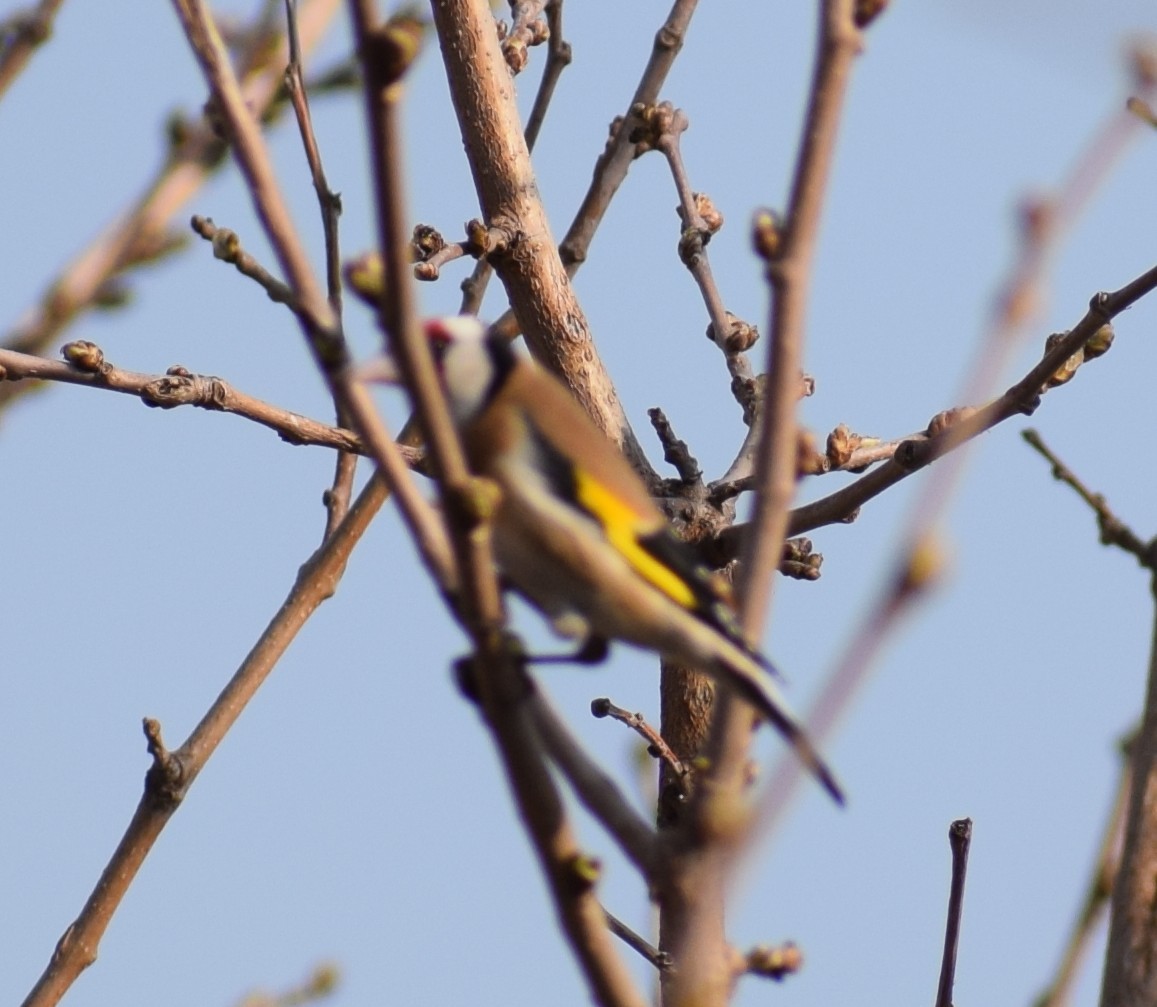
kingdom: Animalia
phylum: Chordata
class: Aves
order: Passeriformes
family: Fringillidae
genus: Carduelis
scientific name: Carduelis carduelis
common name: European goldfinch
